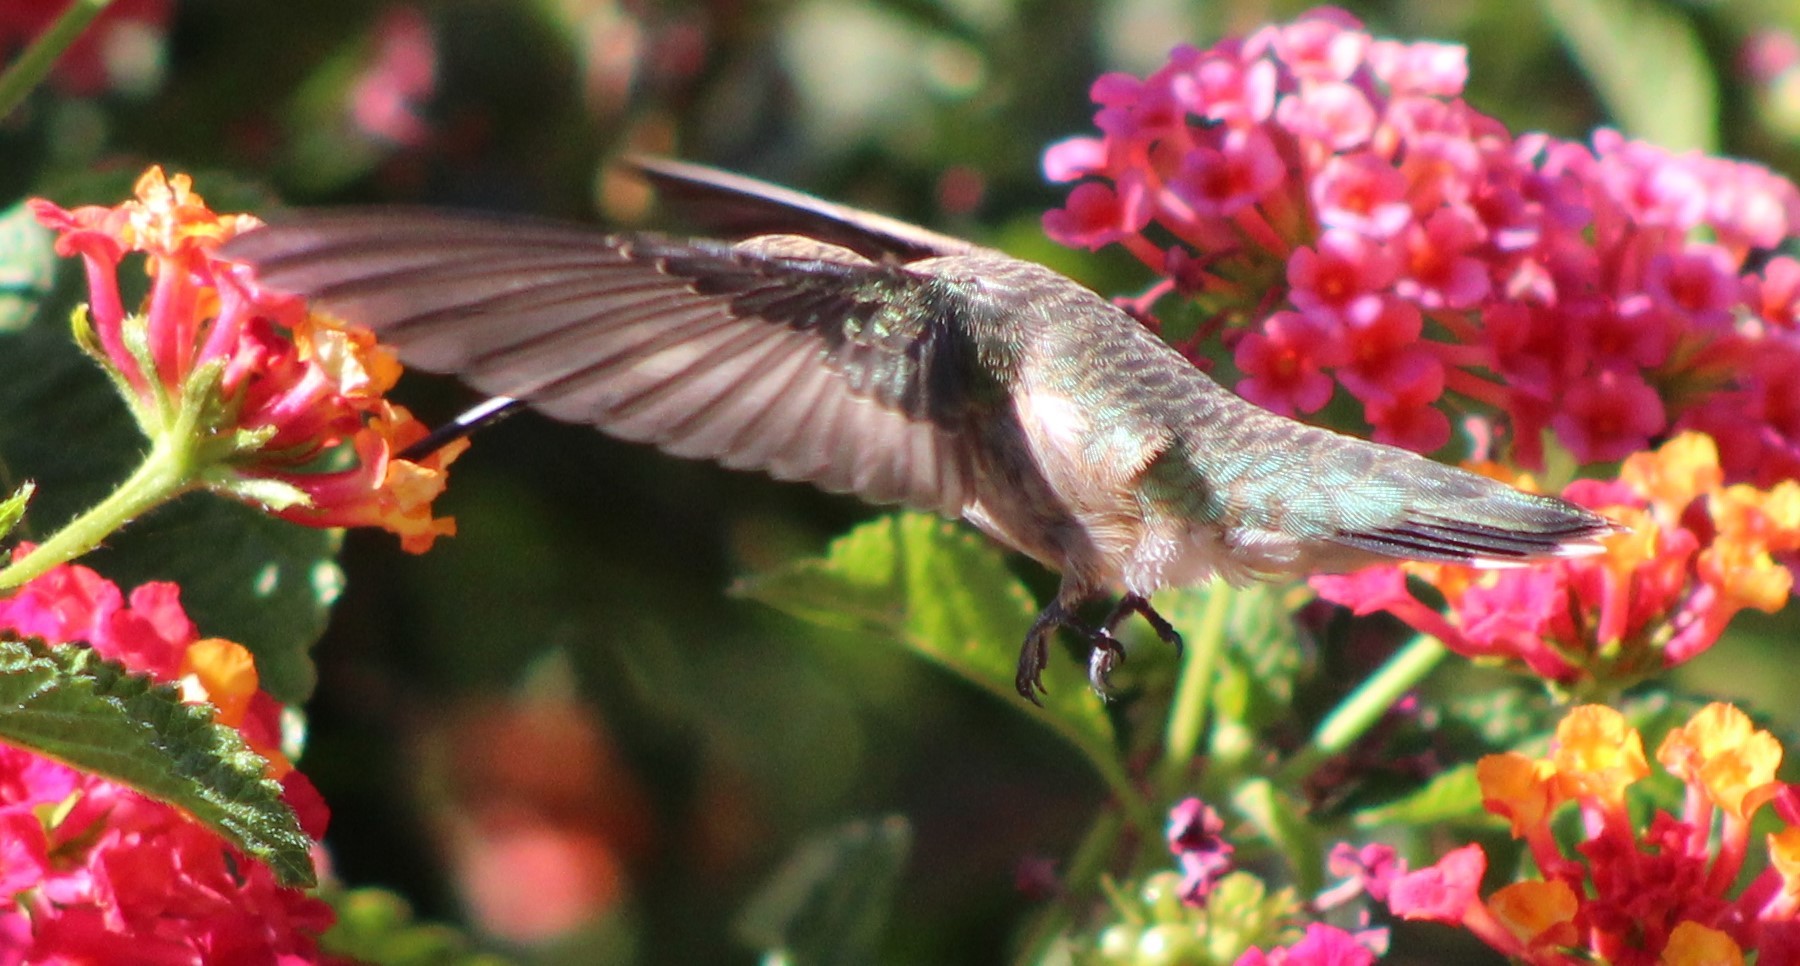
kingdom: Animalia
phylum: Chordata
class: Aves
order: Apodiformes
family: Trochilidae
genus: Archilochus
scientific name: Archilochus alexandri
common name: Black-chinned hummingbird
